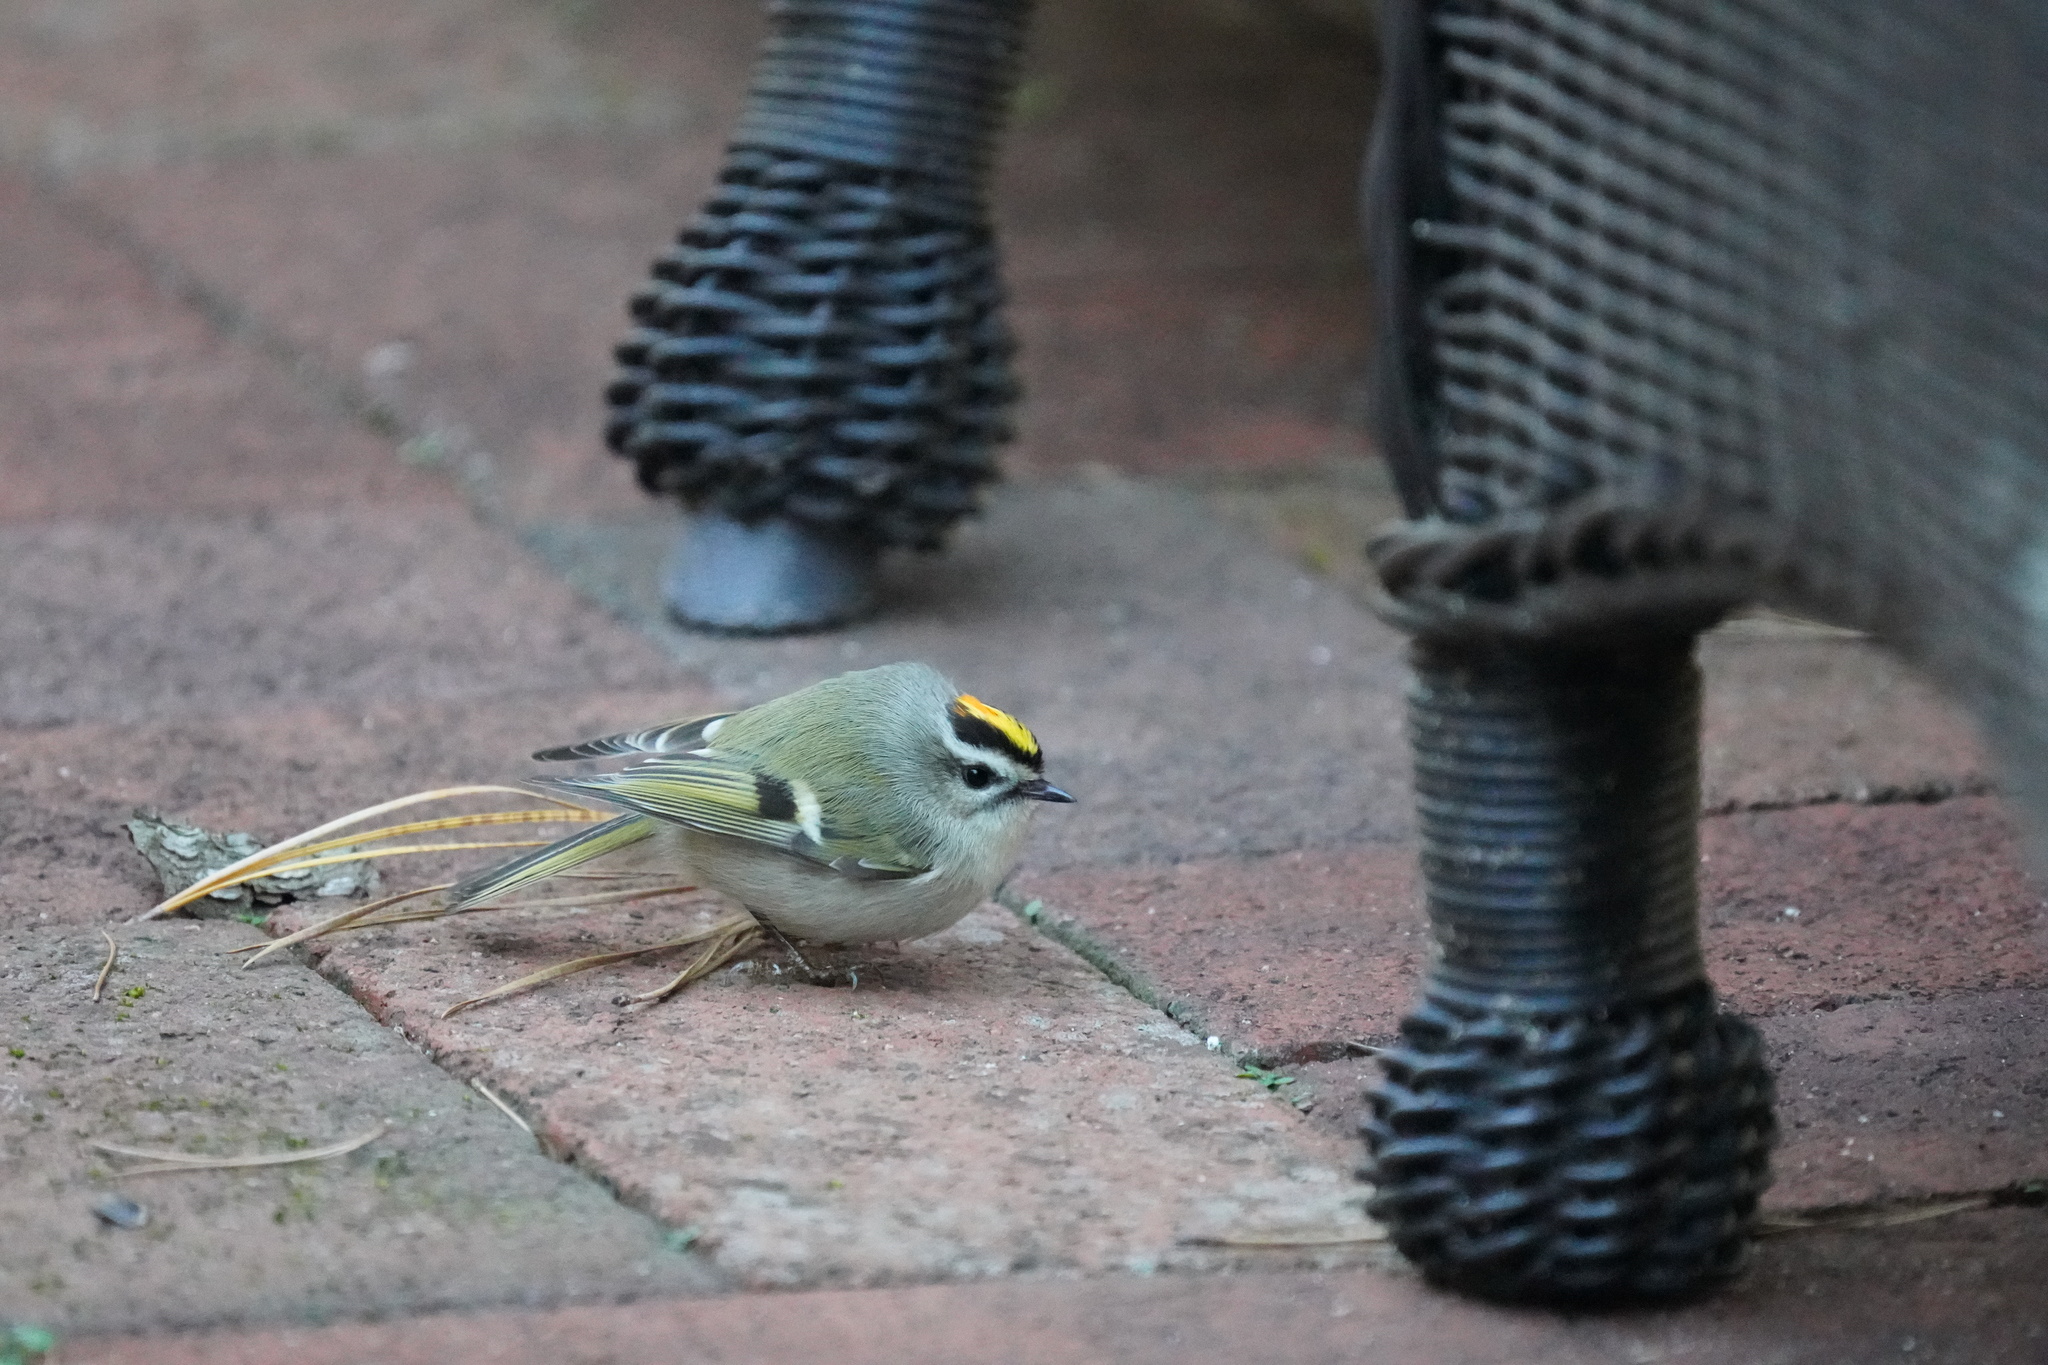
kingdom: Animalia
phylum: Chordata
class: Aves
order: Passeriformes
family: Regulidae
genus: Regulus
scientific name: Regulus satrapa
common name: Golden-crowned kinglet
